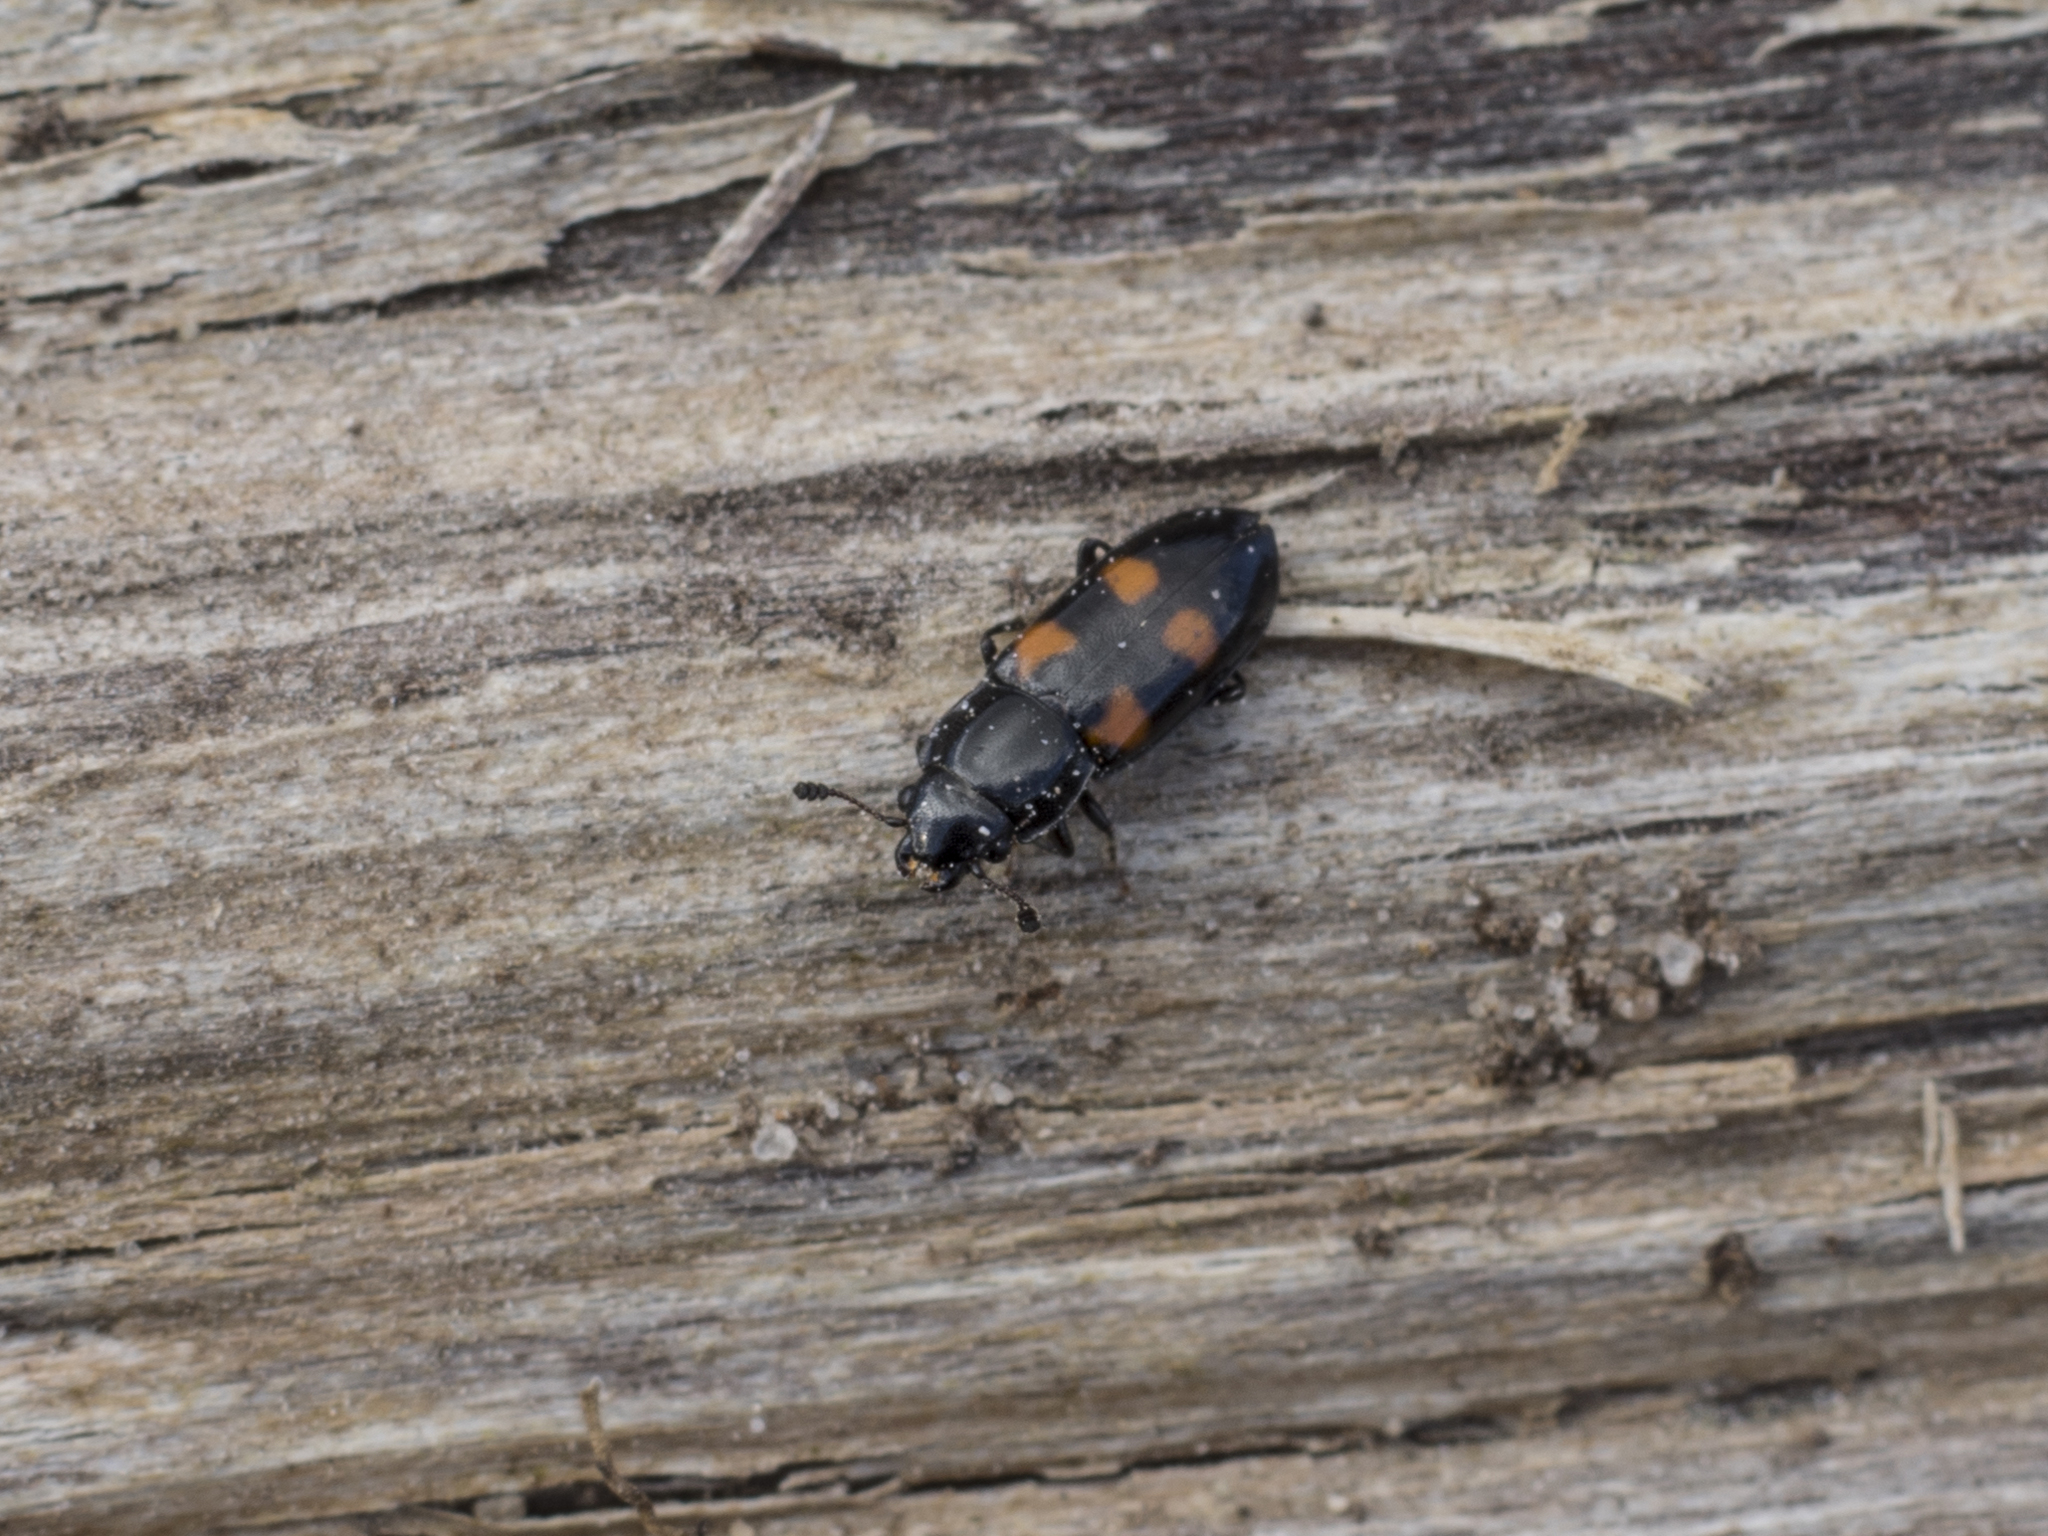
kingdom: Animalia
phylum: Arthropoda
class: Insecta
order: Coleoptera
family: Nitidulidae
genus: Glischrochilus
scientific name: Glischrochilus quadripunctatus
